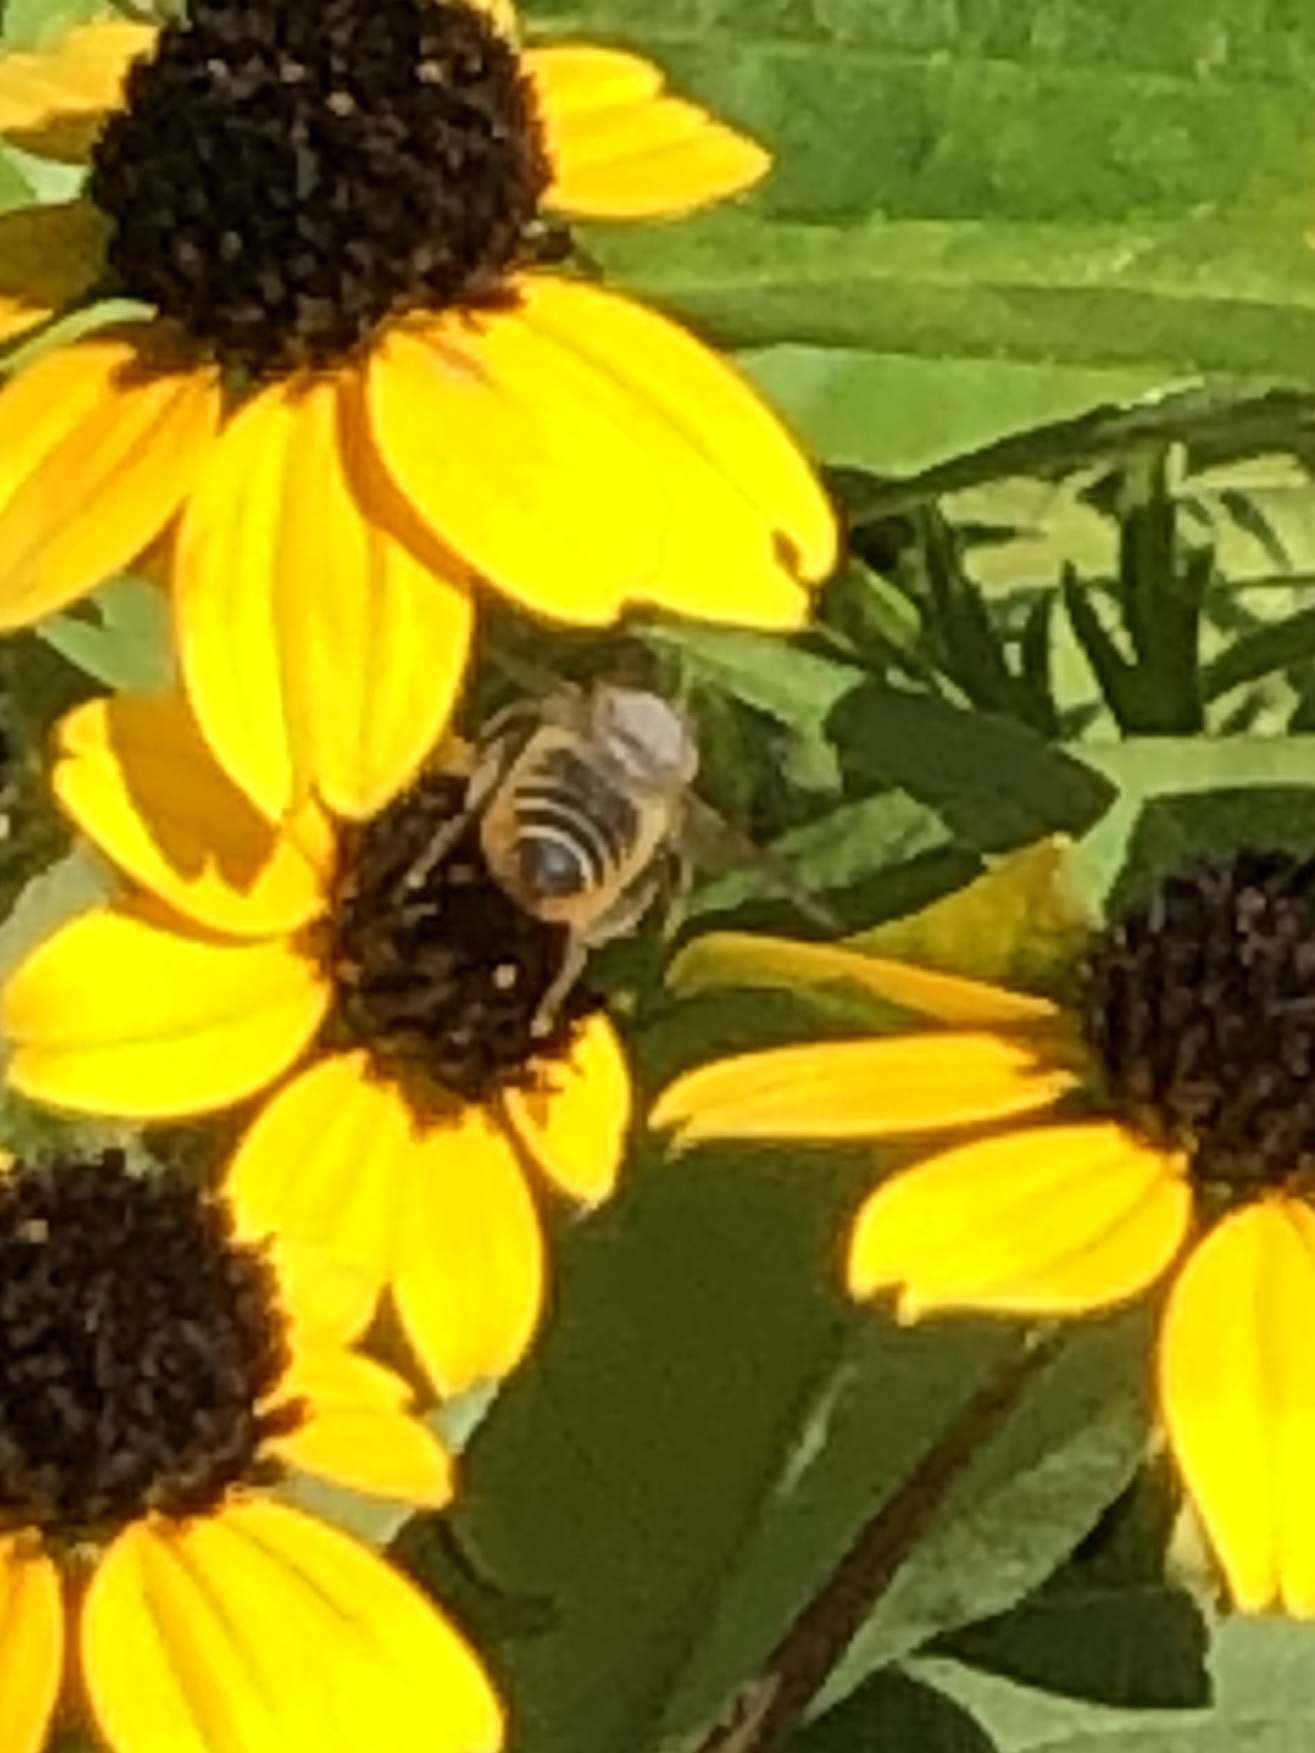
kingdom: Animalia
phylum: Arthropoda
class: Insecta
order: Hymenoptera
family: Megachilidae
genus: Megachile
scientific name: Megachile
